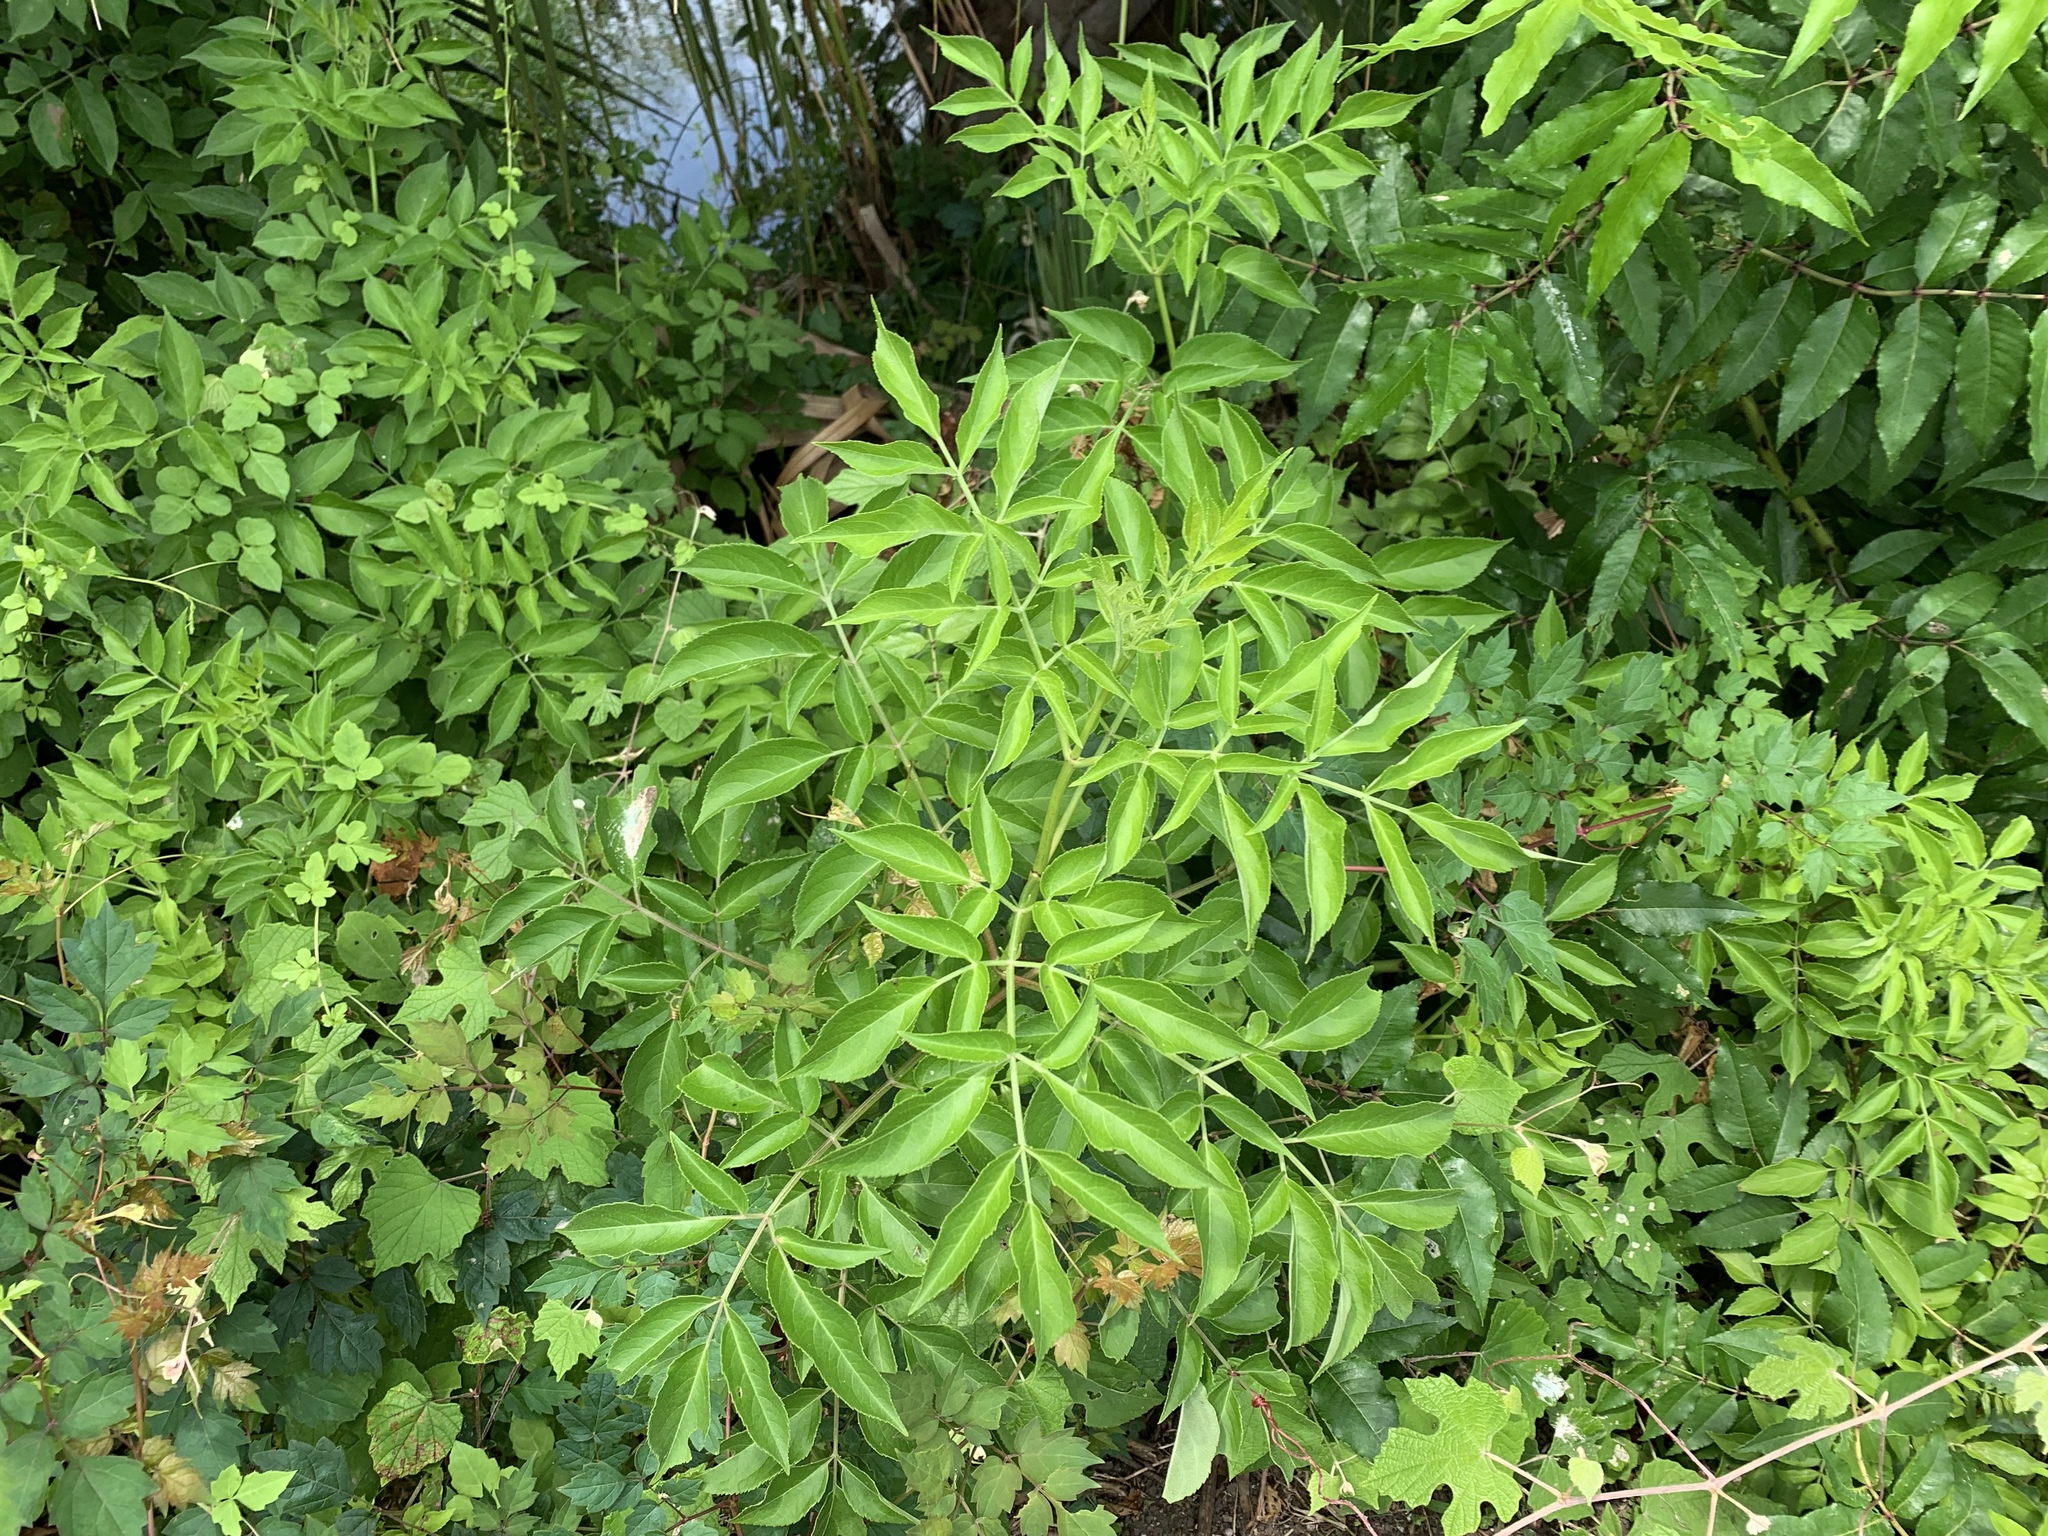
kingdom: Plantae
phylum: Tracheophyta
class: Magnoliopsida
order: Dipsacales
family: Viburnaceae
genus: Sambucus
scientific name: Sambucus canadensis
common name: American elder
